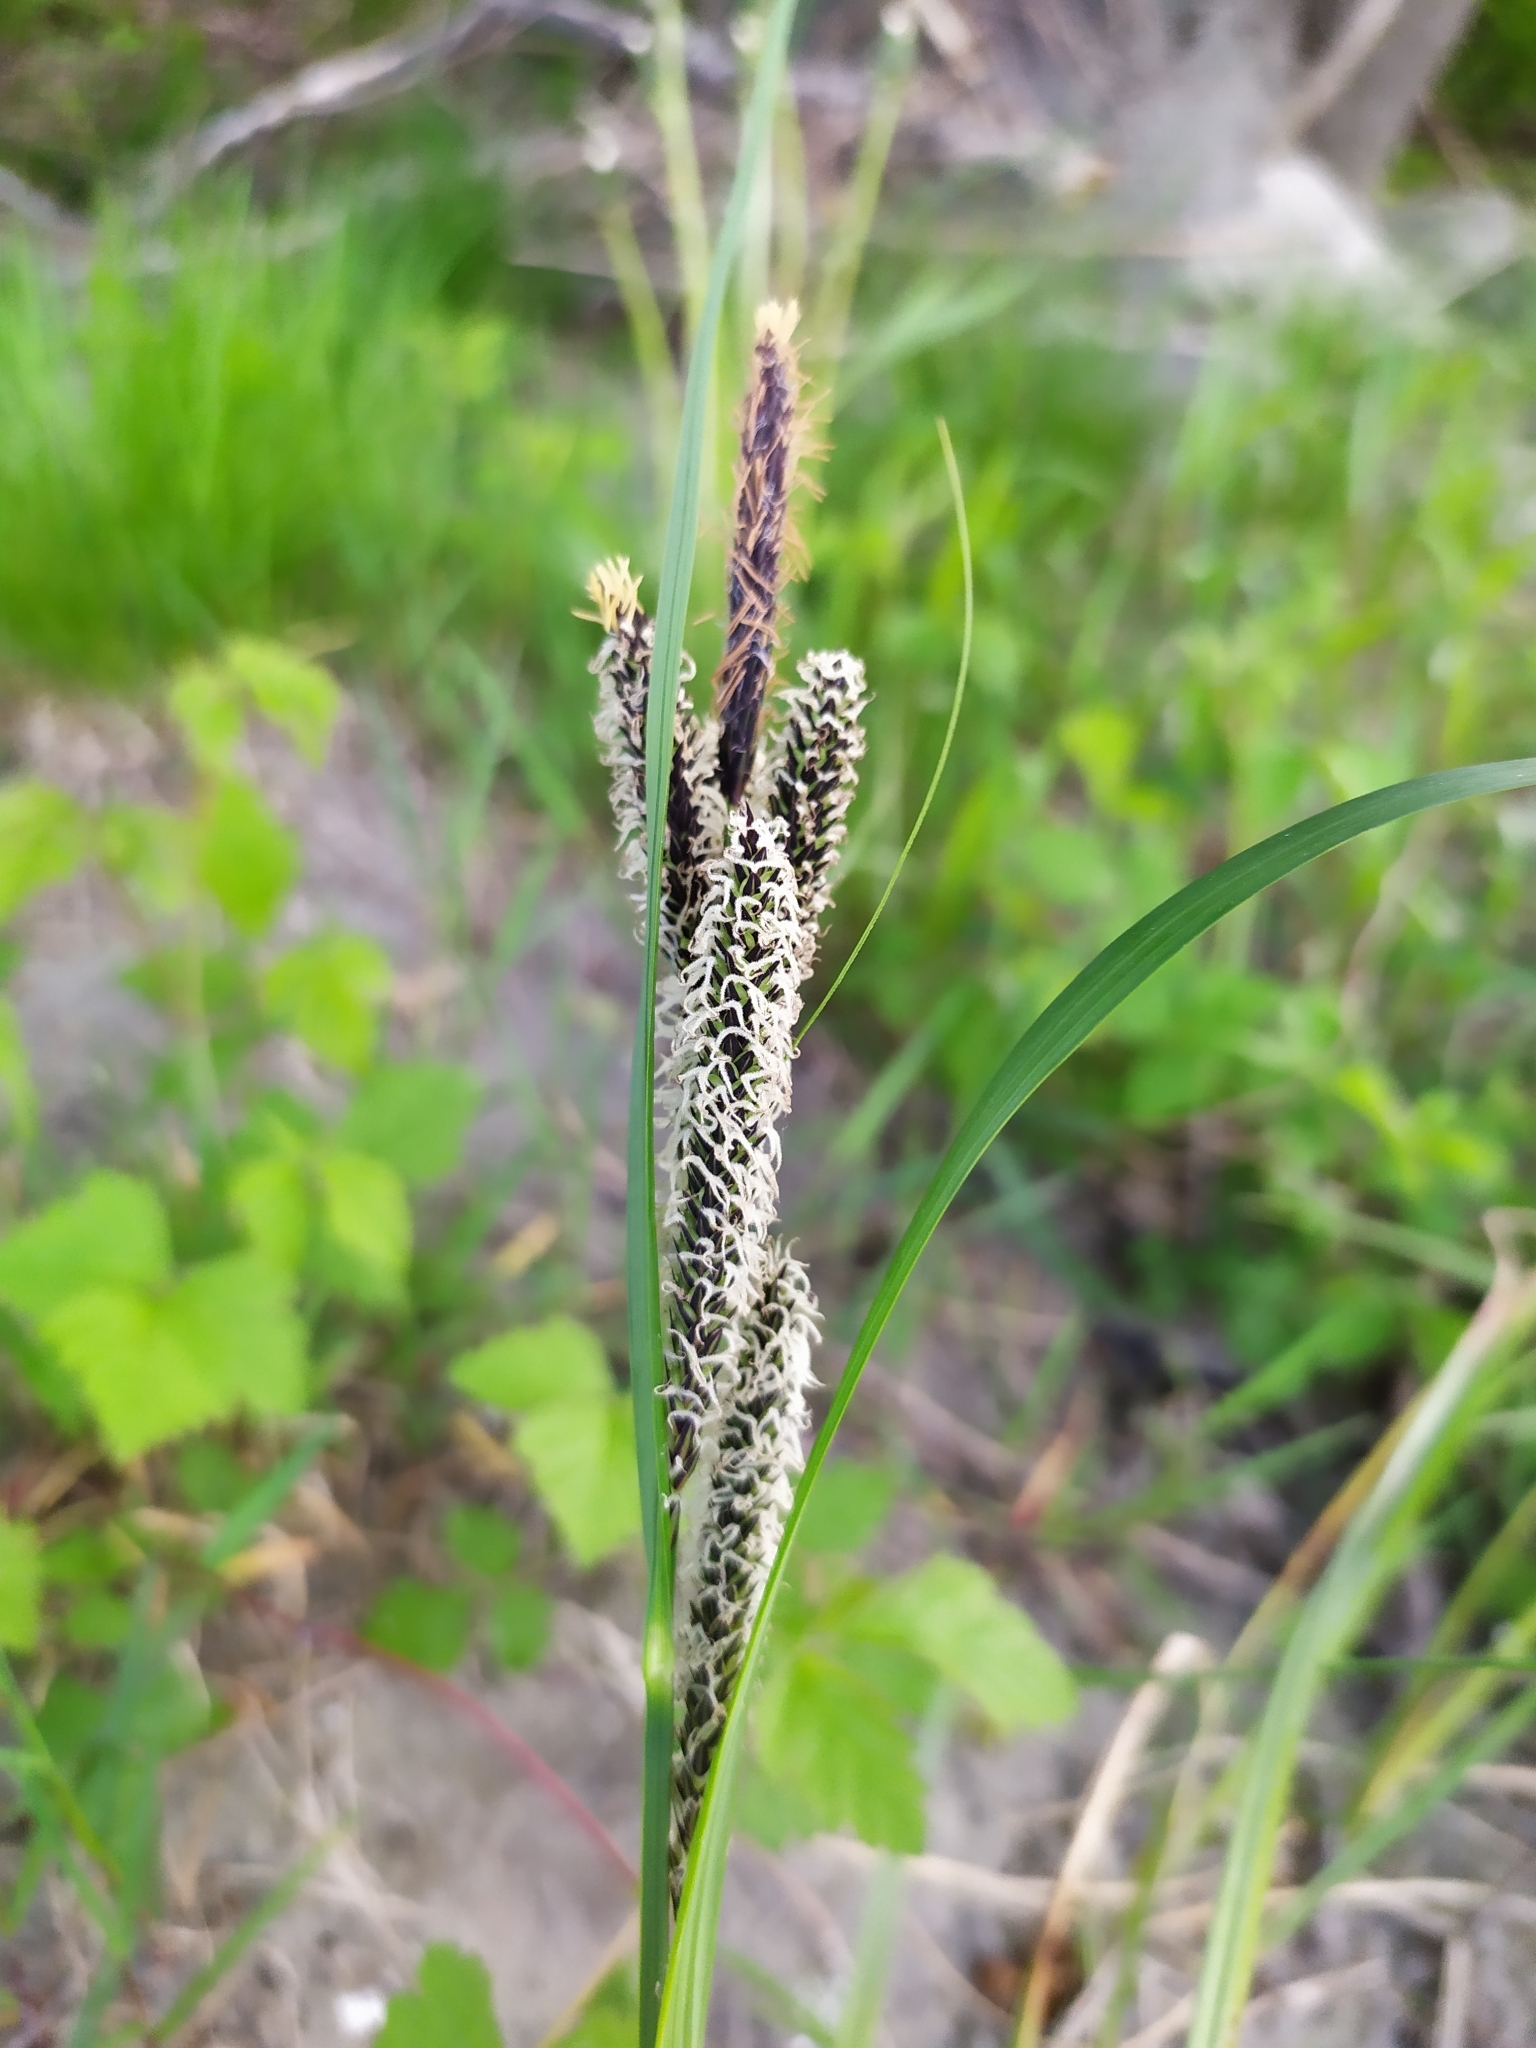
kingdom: Plantae
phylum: Tracheophyta
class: Liliopsida
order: Poales
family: Cyperaceae
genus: Carex
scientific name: Carex acutiformis
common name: Lesser pond-sedge
